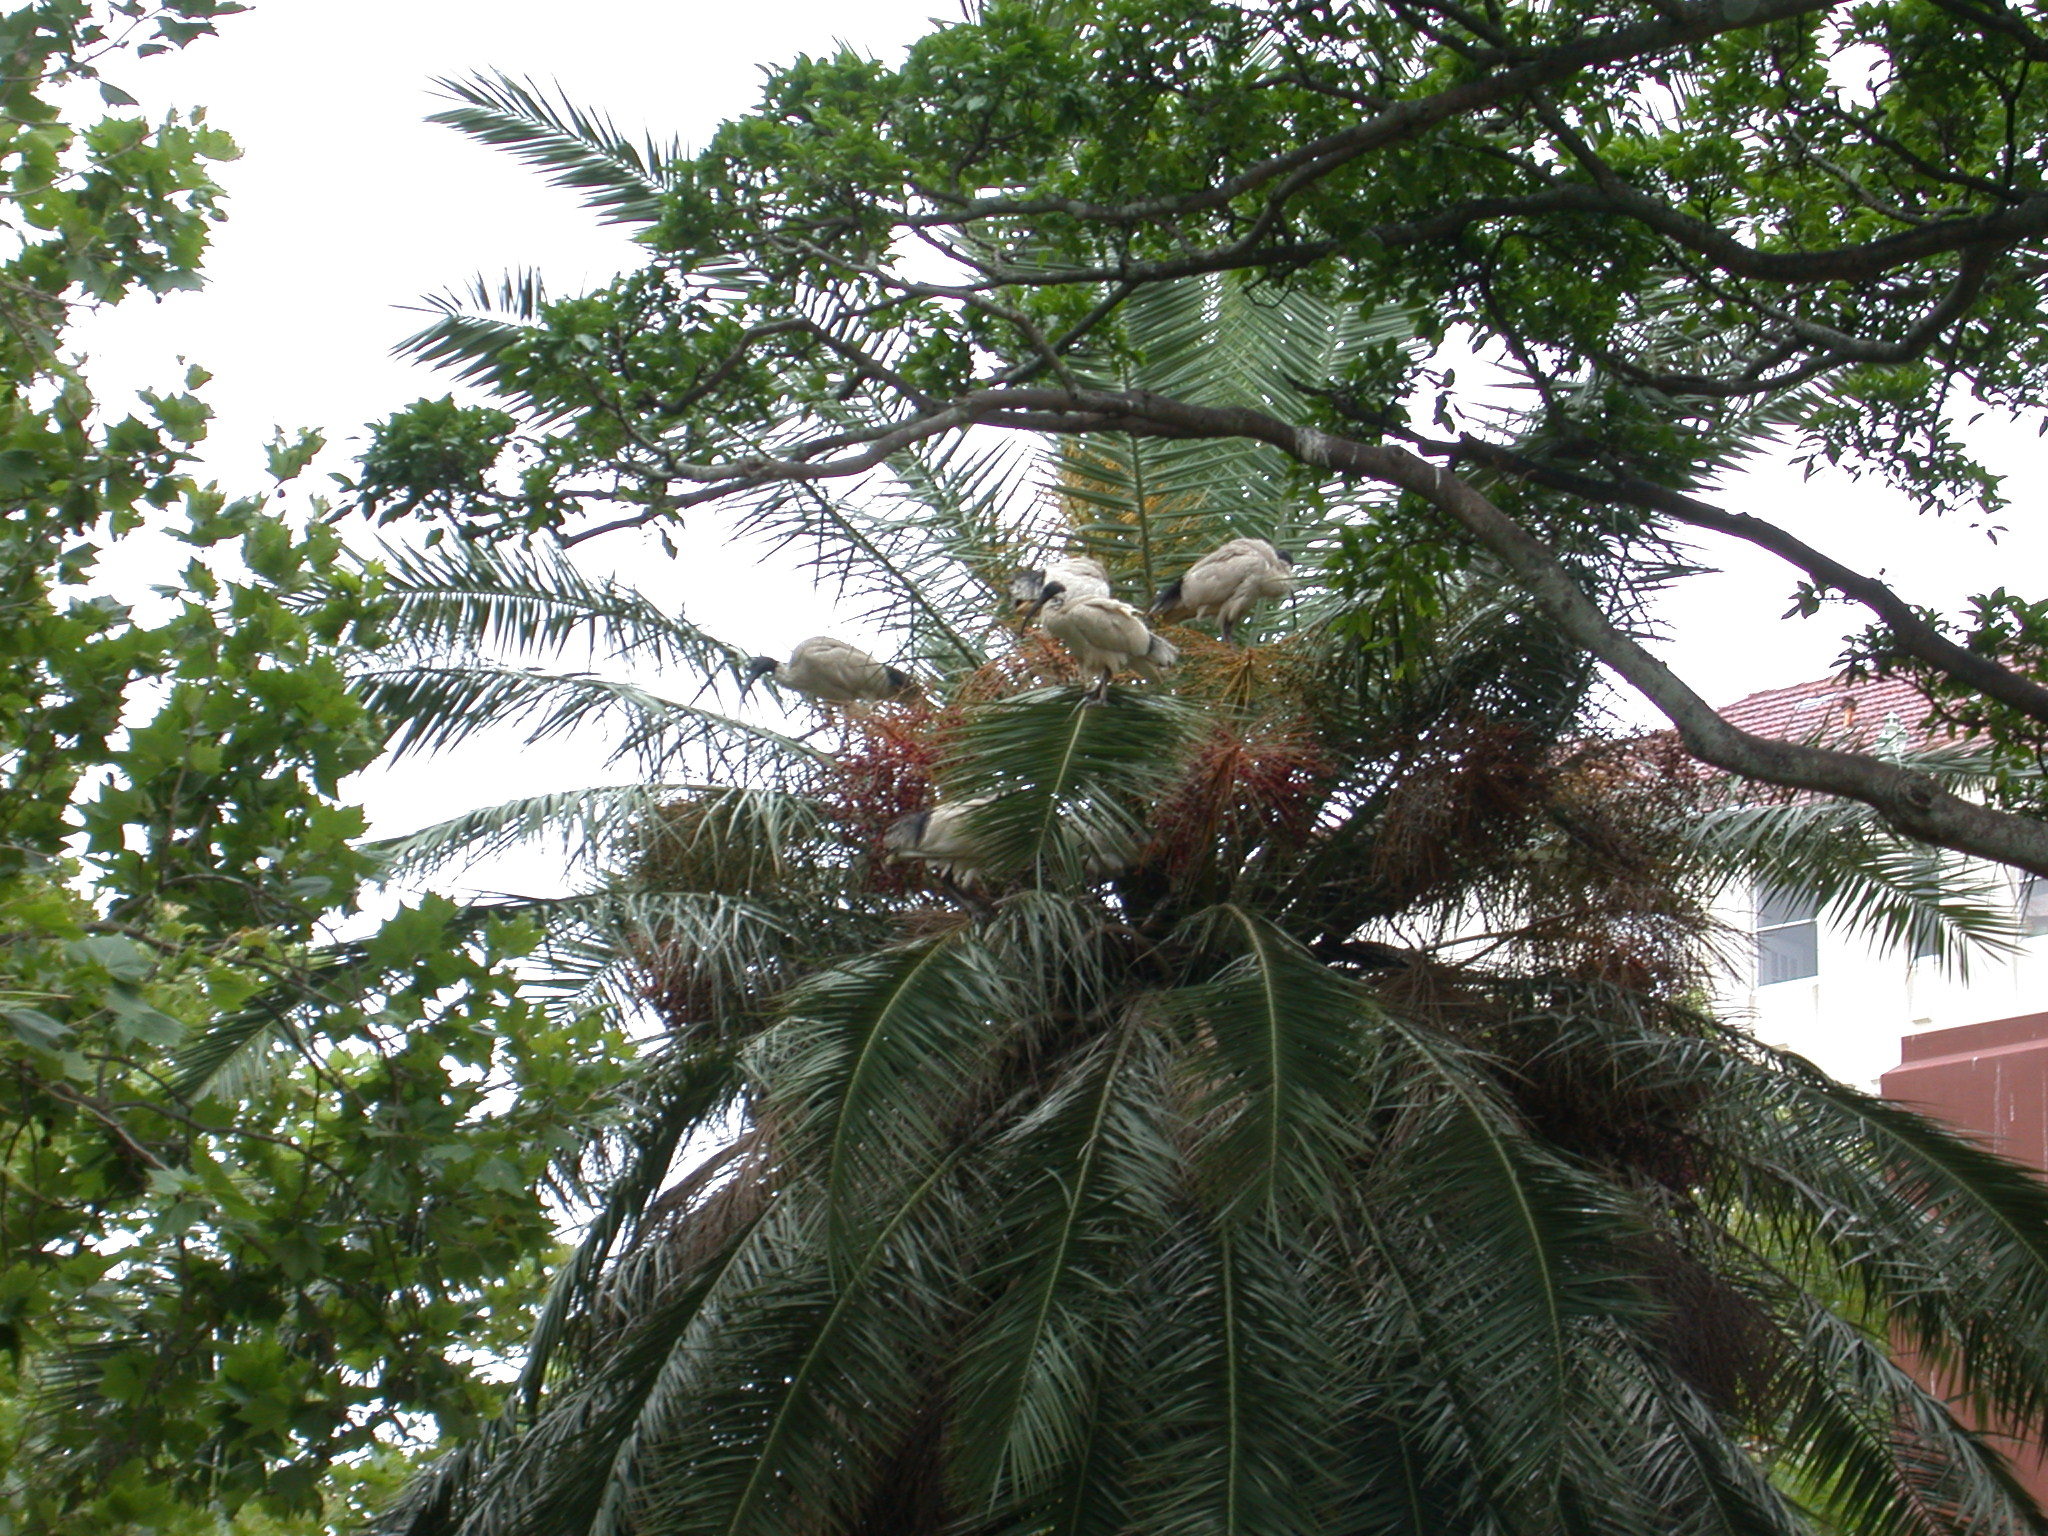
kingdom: Animalia
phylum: Chordata
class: Aves
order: Pelecaniformes
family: Threskiornithidae
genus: Threskiornis
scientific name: Threskiornis molucca
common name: Australian white ibis
